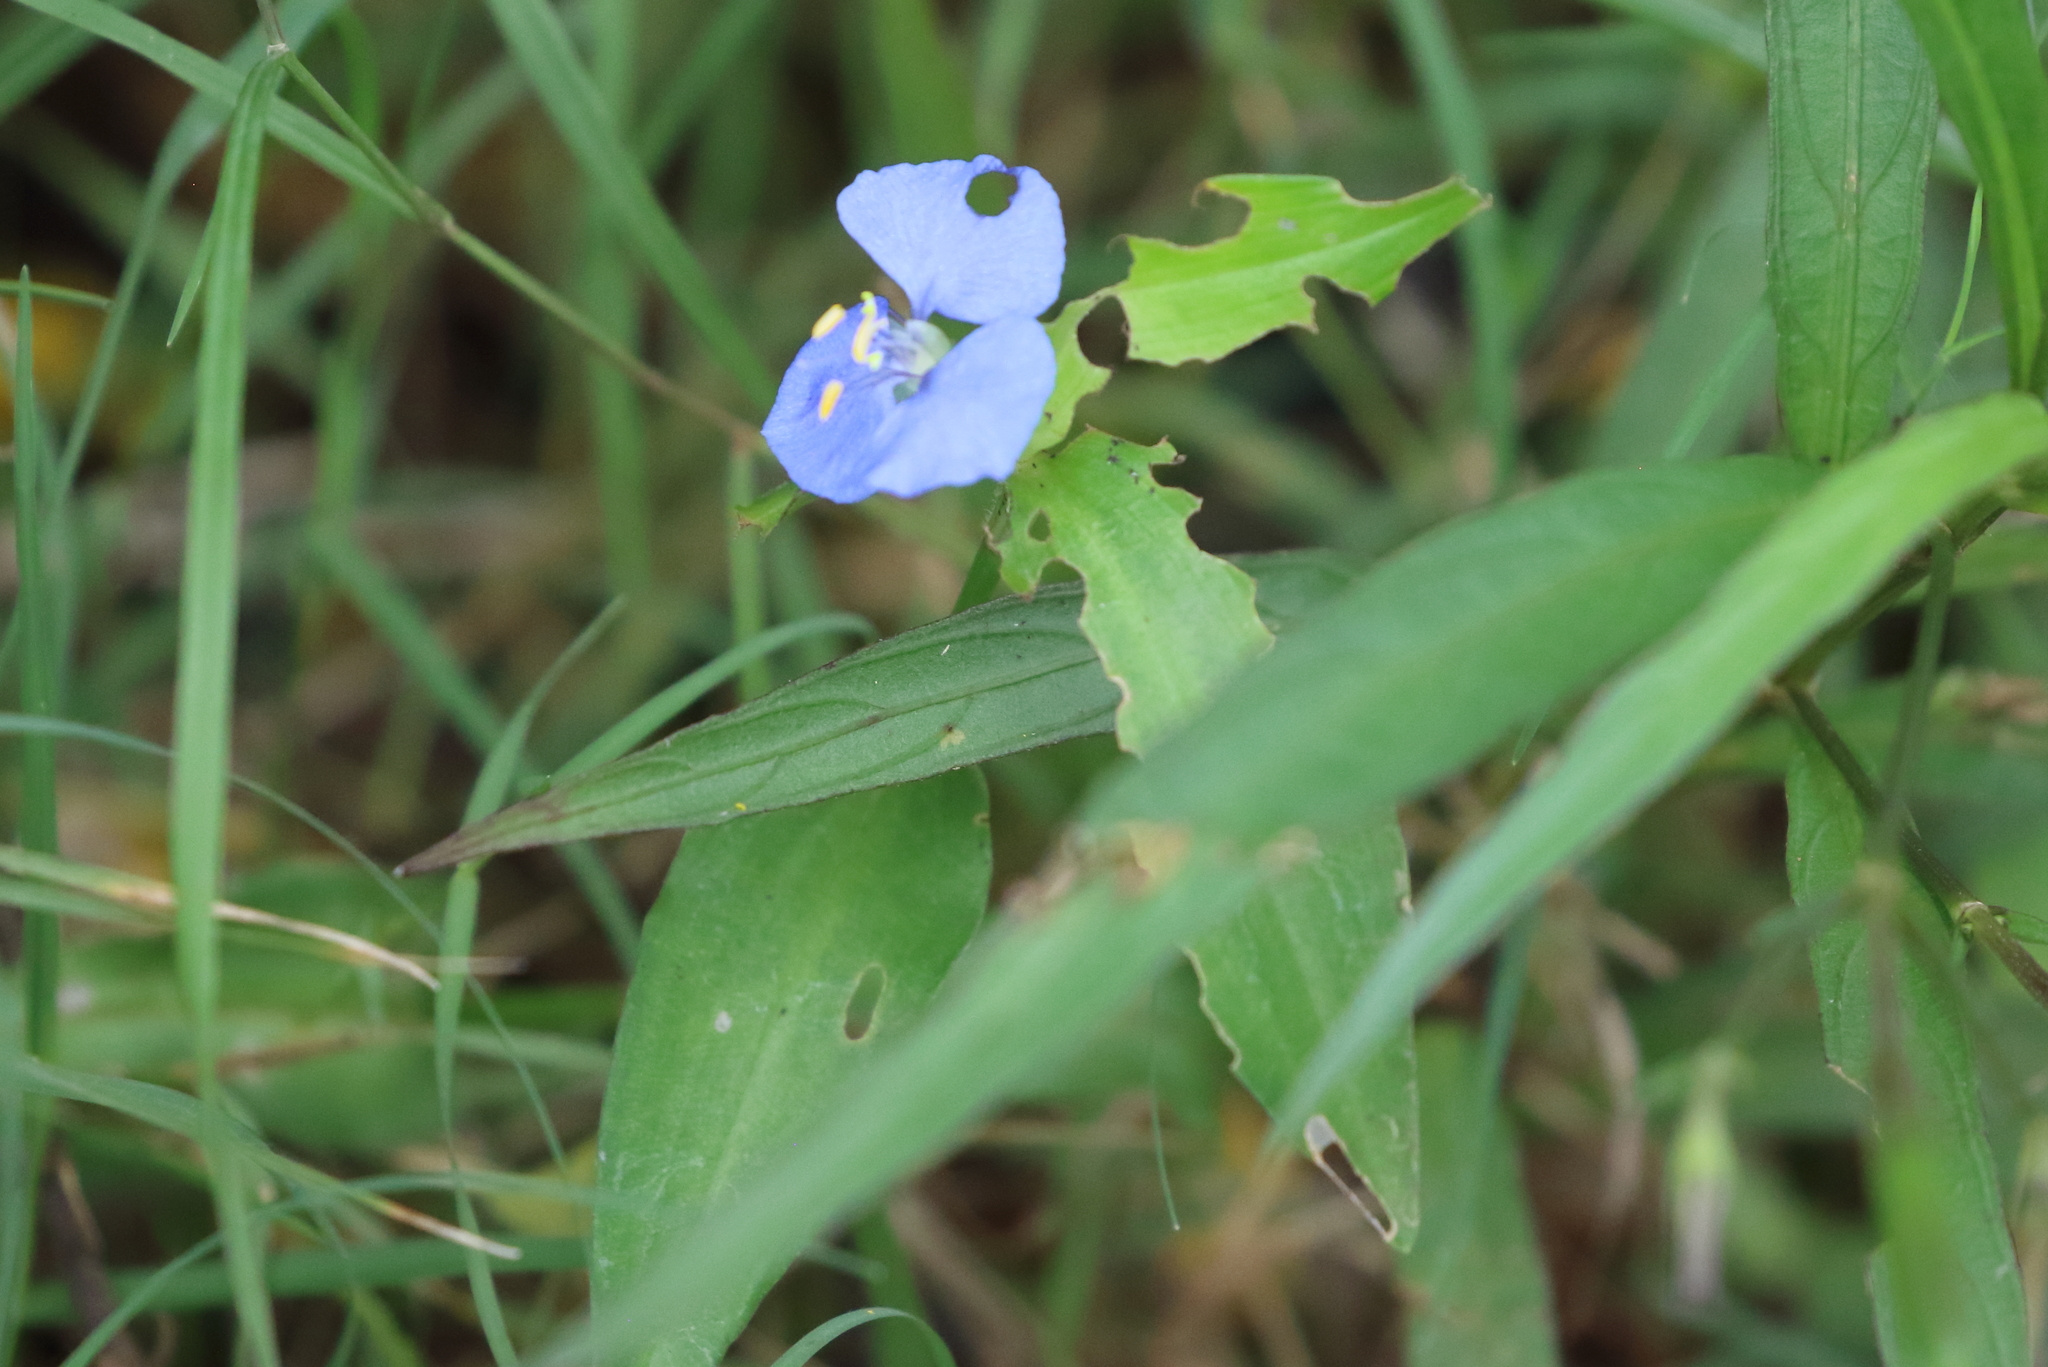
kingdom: Plantae
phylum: Tracheophyta
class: Liliopsida
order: Commelinales
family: Commelinaceae
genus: Commelina
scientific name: Commelina cyanea
